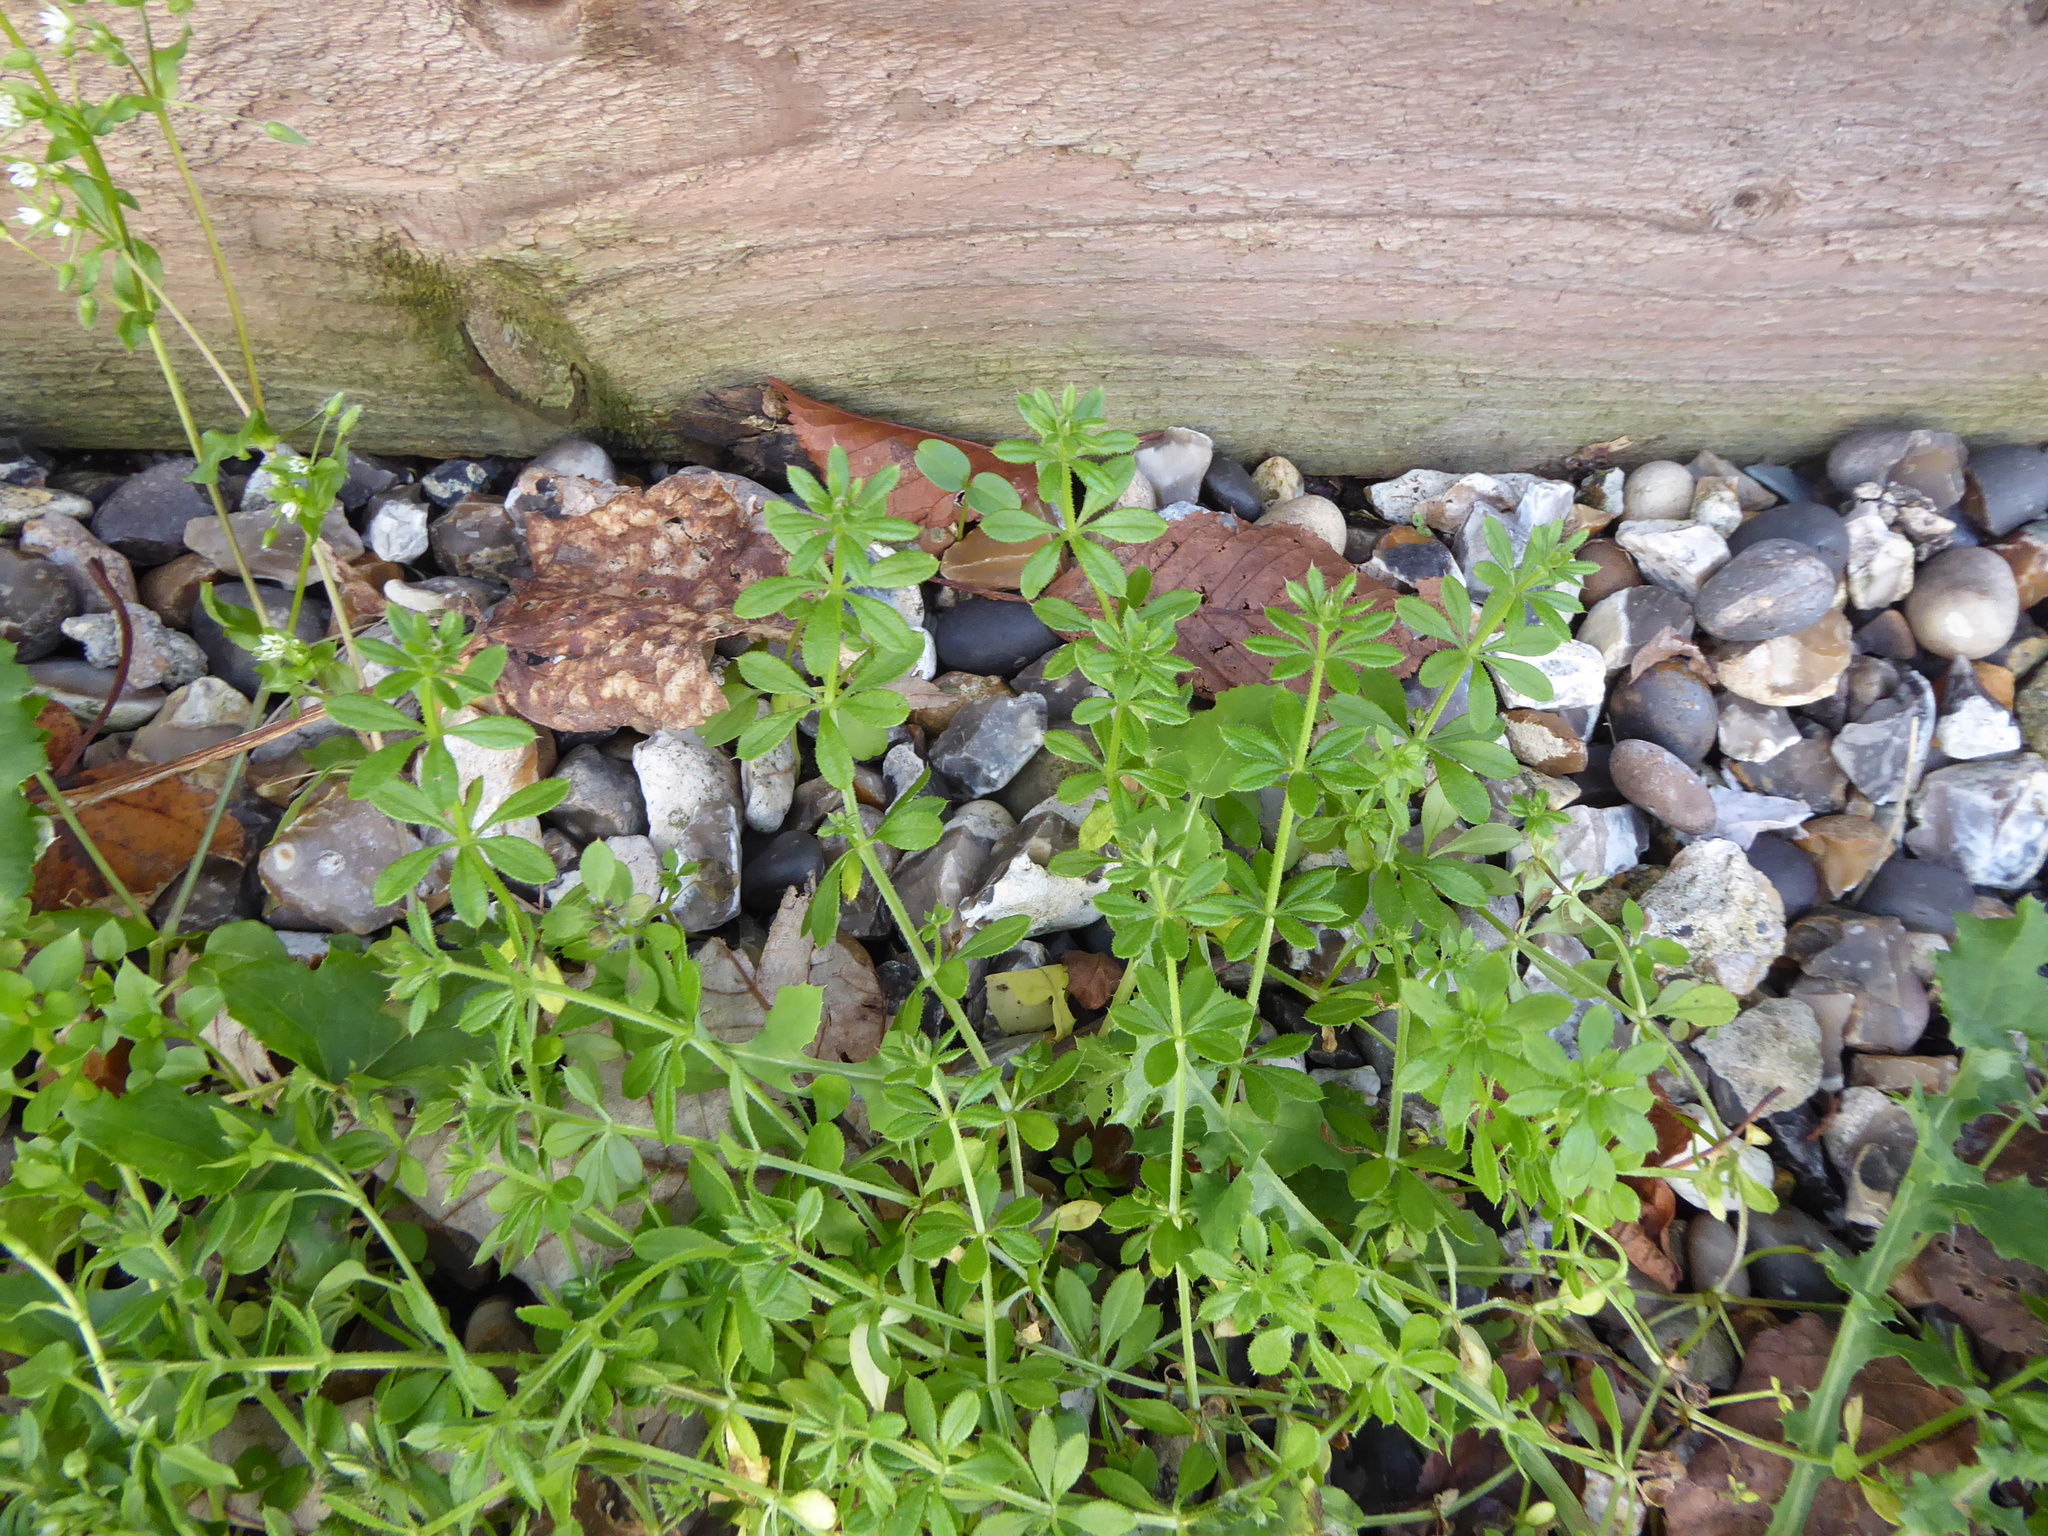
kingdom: Plantae
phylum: Tracheophyta
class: Magnoliopsida
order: Gentianales
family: Rubiaceae
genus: Galium
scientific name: Galium aparine
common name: Cleavers
